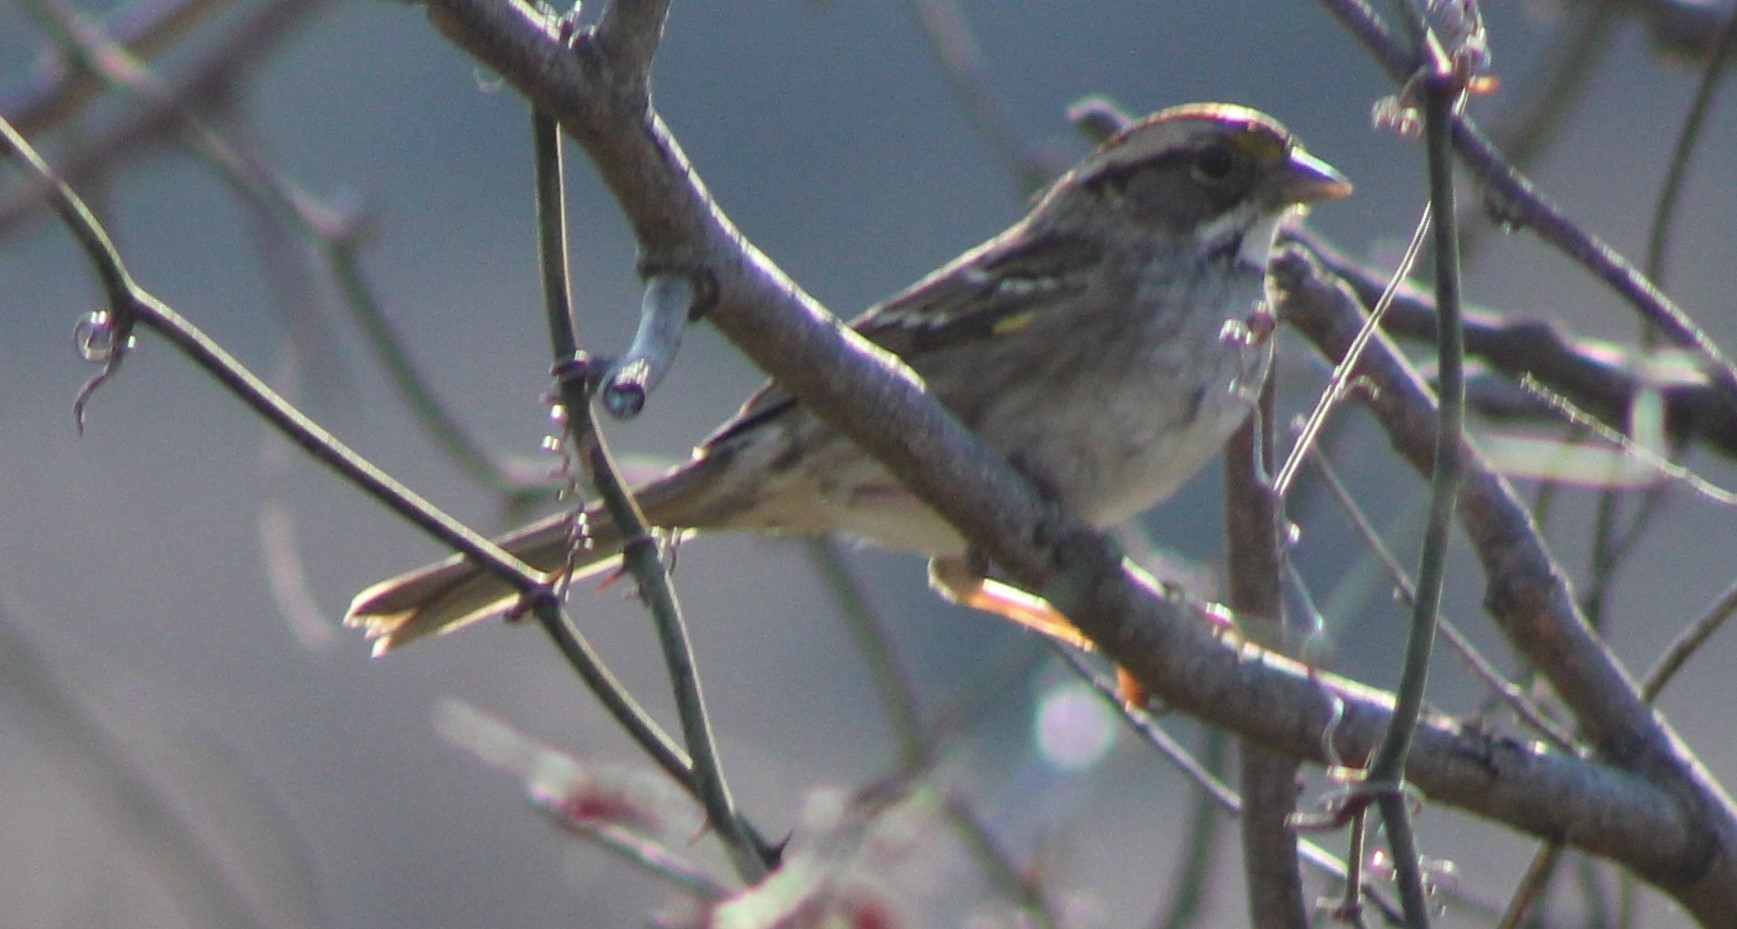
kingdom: Animalia
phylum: Chordata
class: Aves
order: Passeriformes
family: Passerellidae
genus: Zonotrichia
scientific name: Zonotrichia albicollis
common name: White-throated sparrow
